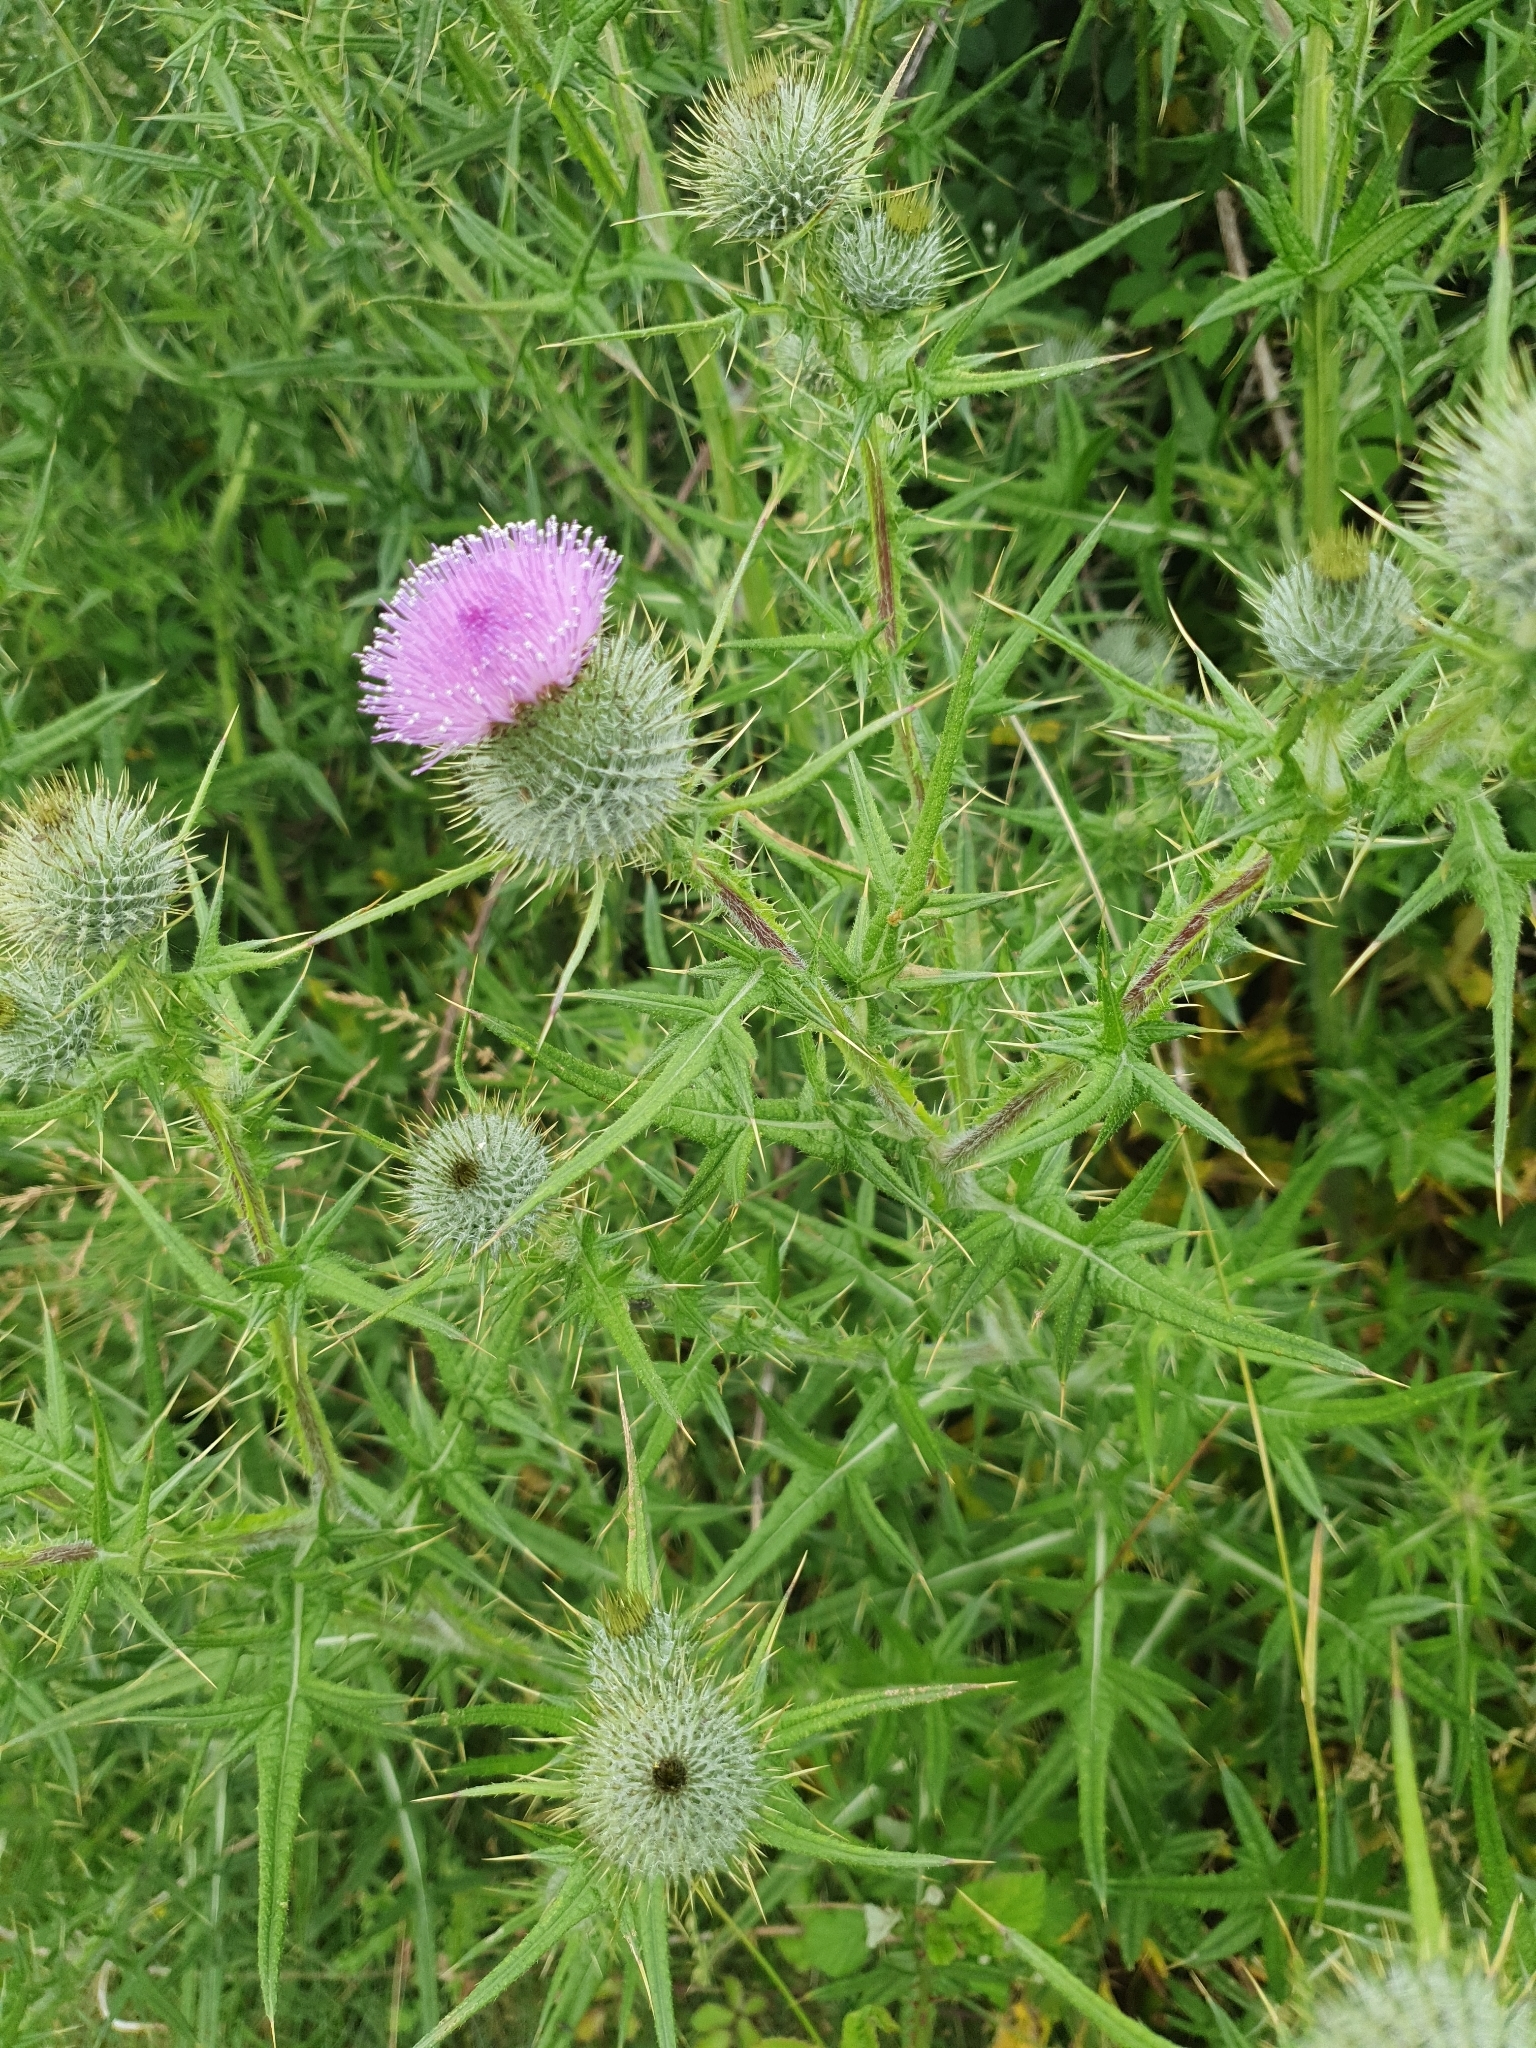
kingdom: Plantae
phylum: Tracheophyta
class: Magnoliopsida
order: Asterales
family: Asteraceae
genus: Cirsium
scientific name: Cirsium vulgare
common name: Bull thistle
